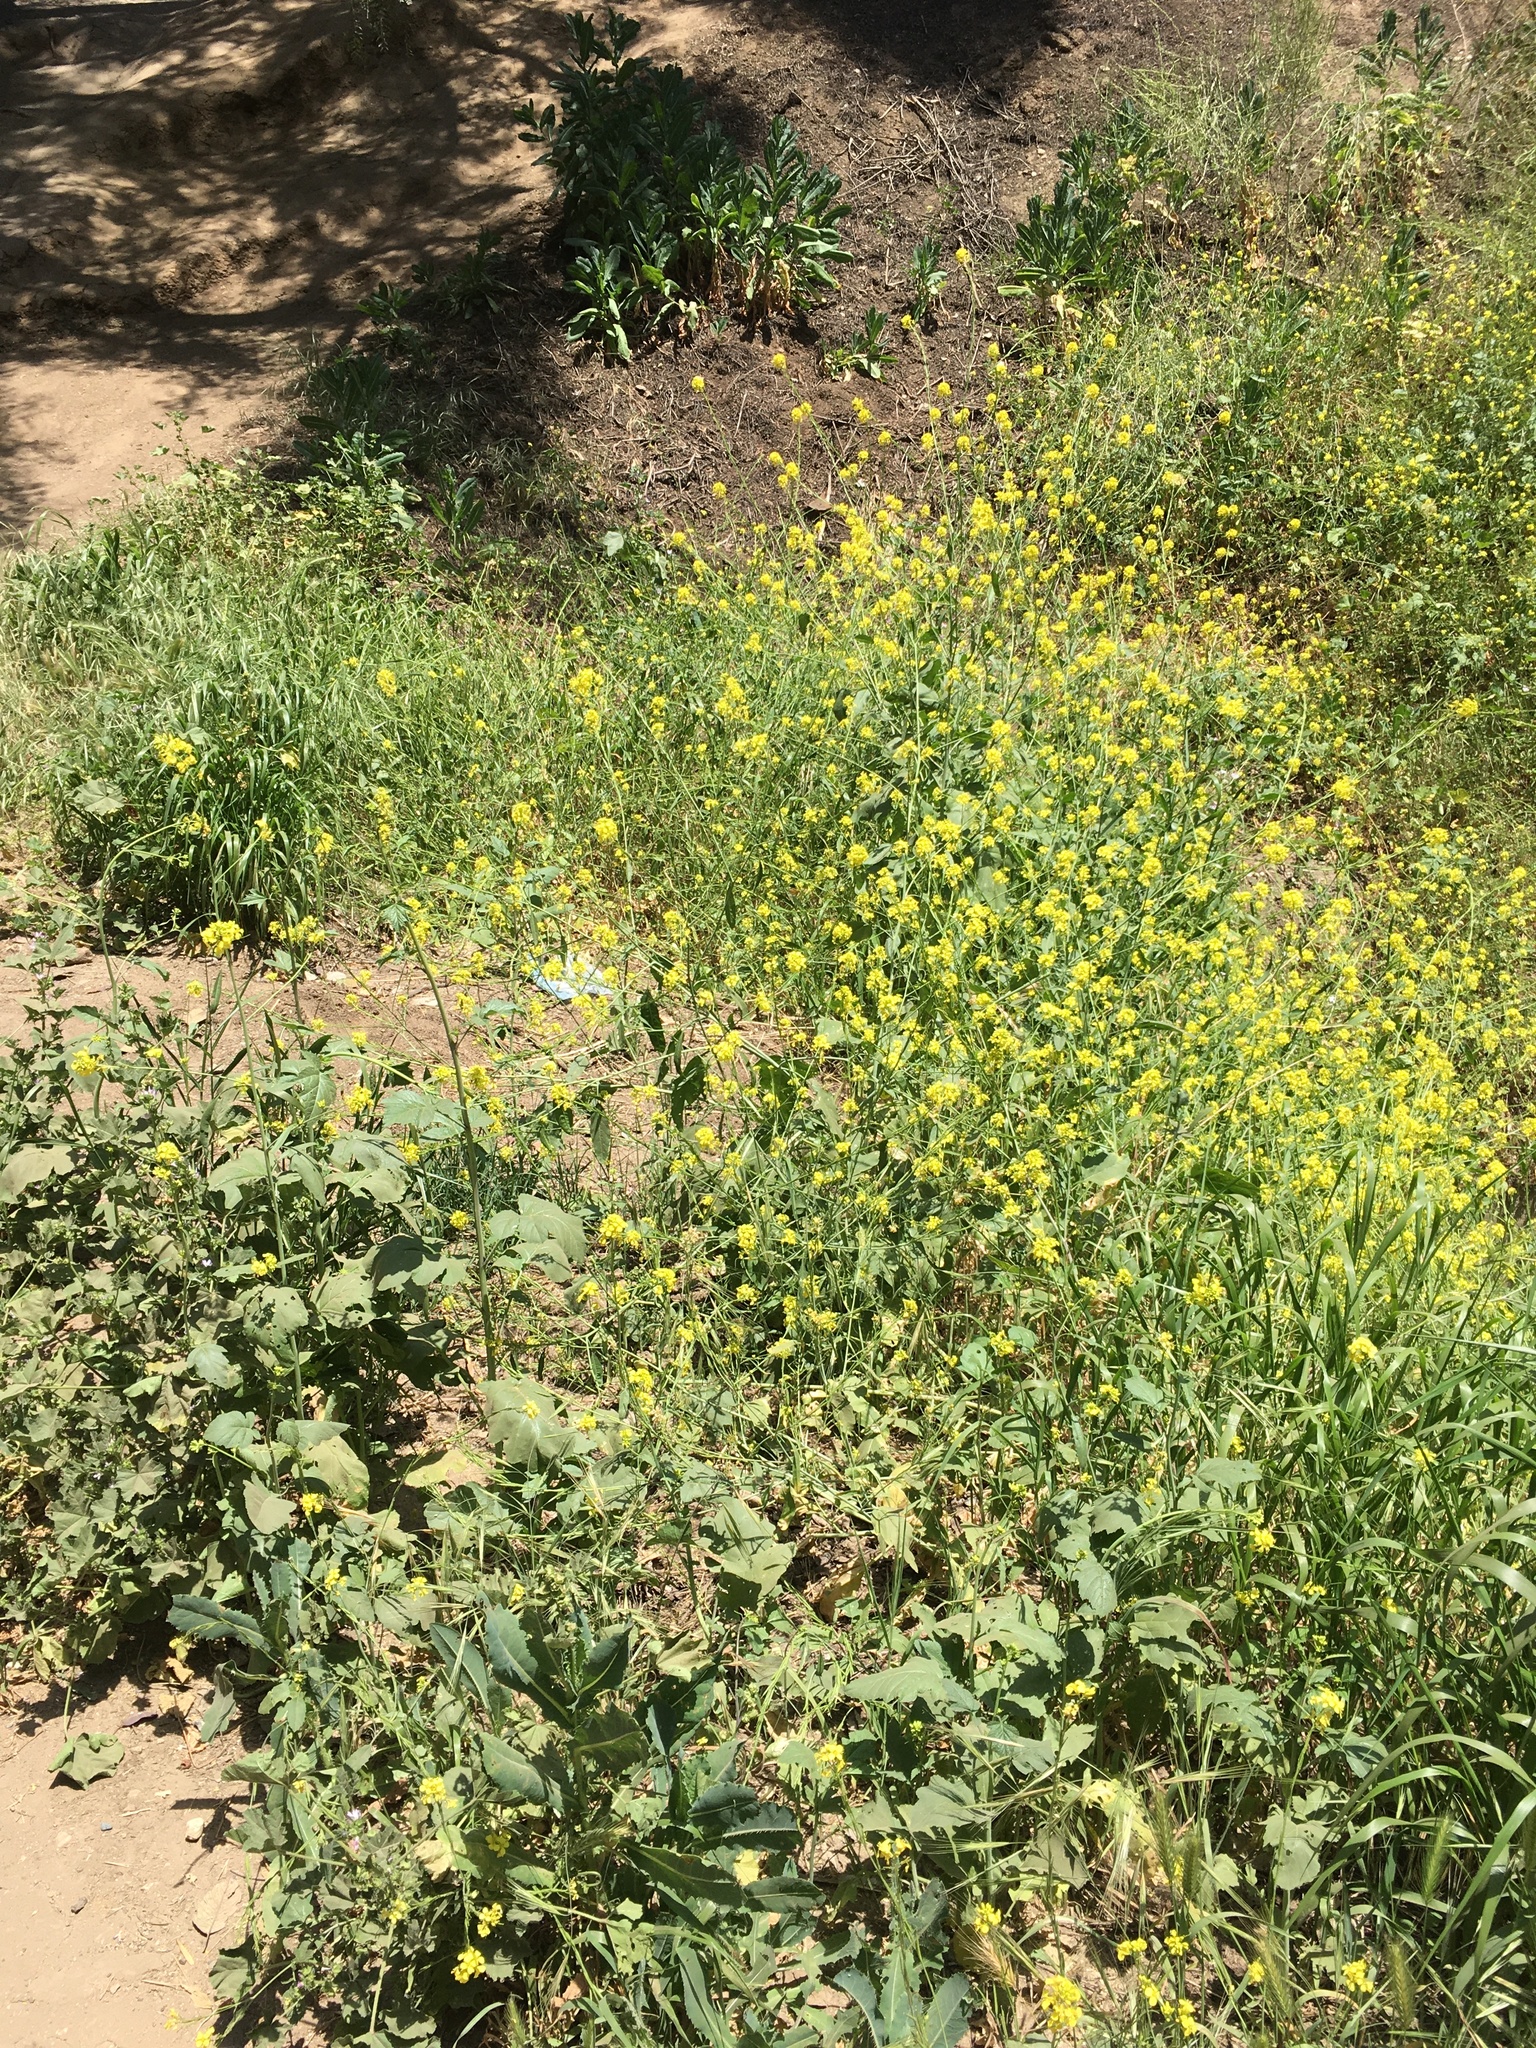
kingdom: Plantae
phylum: Tracheophyta
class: Magnoliopsida
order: Brassicales
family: Brassicaceae
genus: Brassica
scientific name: Brassica nigra
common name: Black mustard
